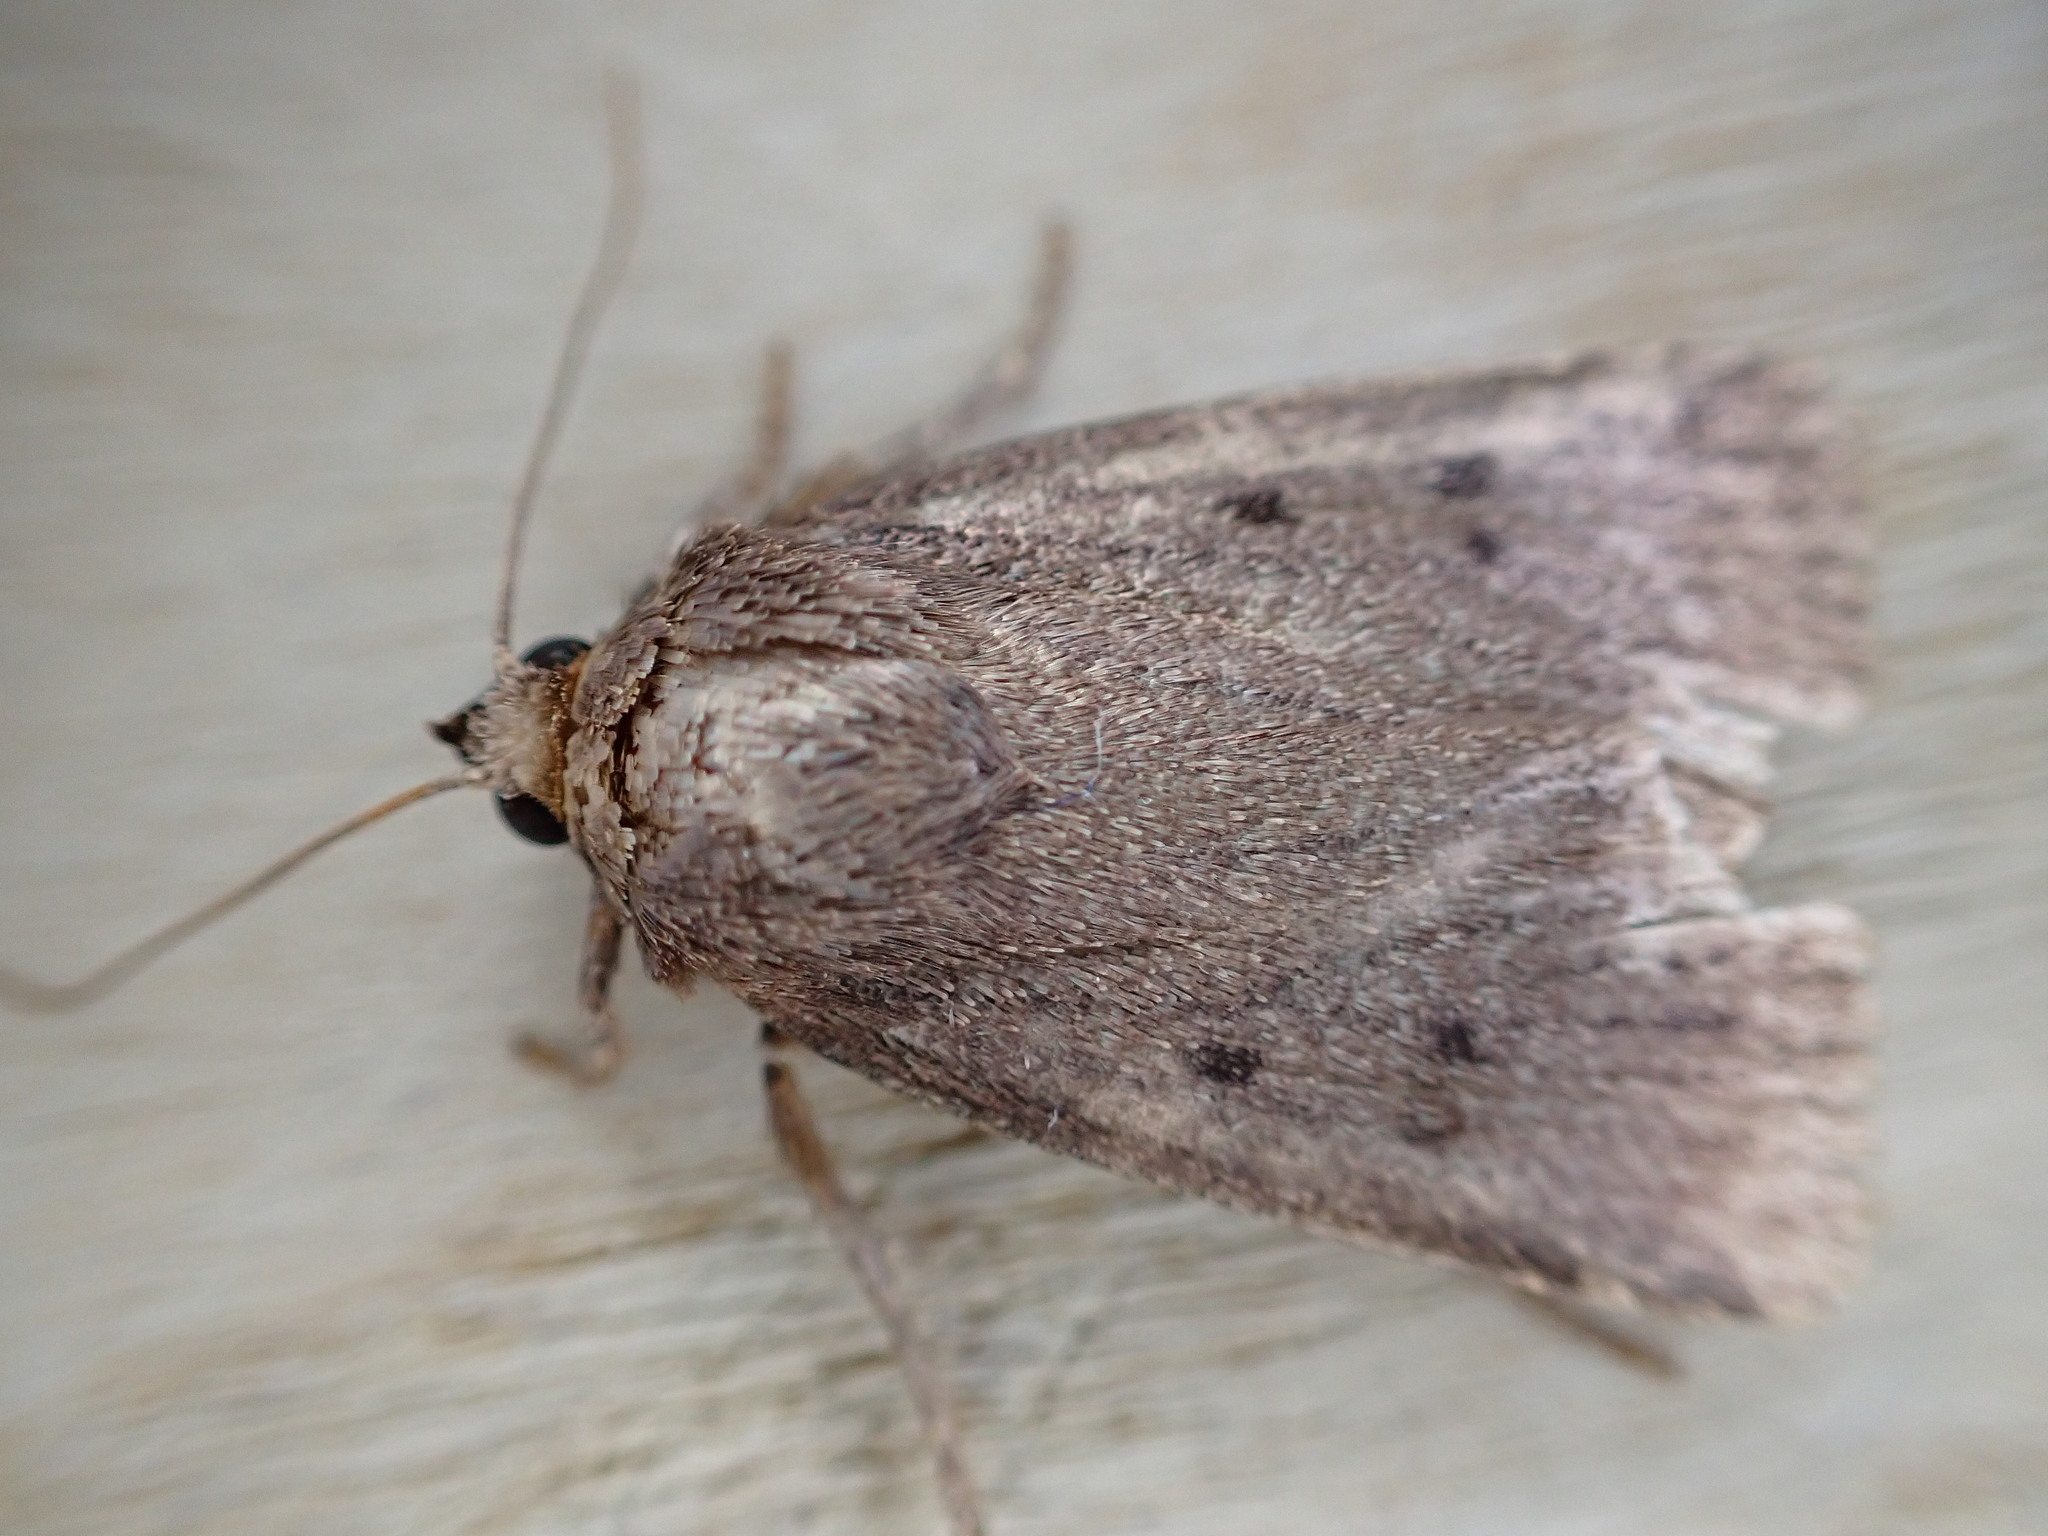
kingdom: Animalia
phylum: Arthropoda
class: Insecta
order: Lepidoptera
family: Noctuidae
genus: Amphipyra
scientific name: Amphipyra tragopoginis
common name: Mouse moth
